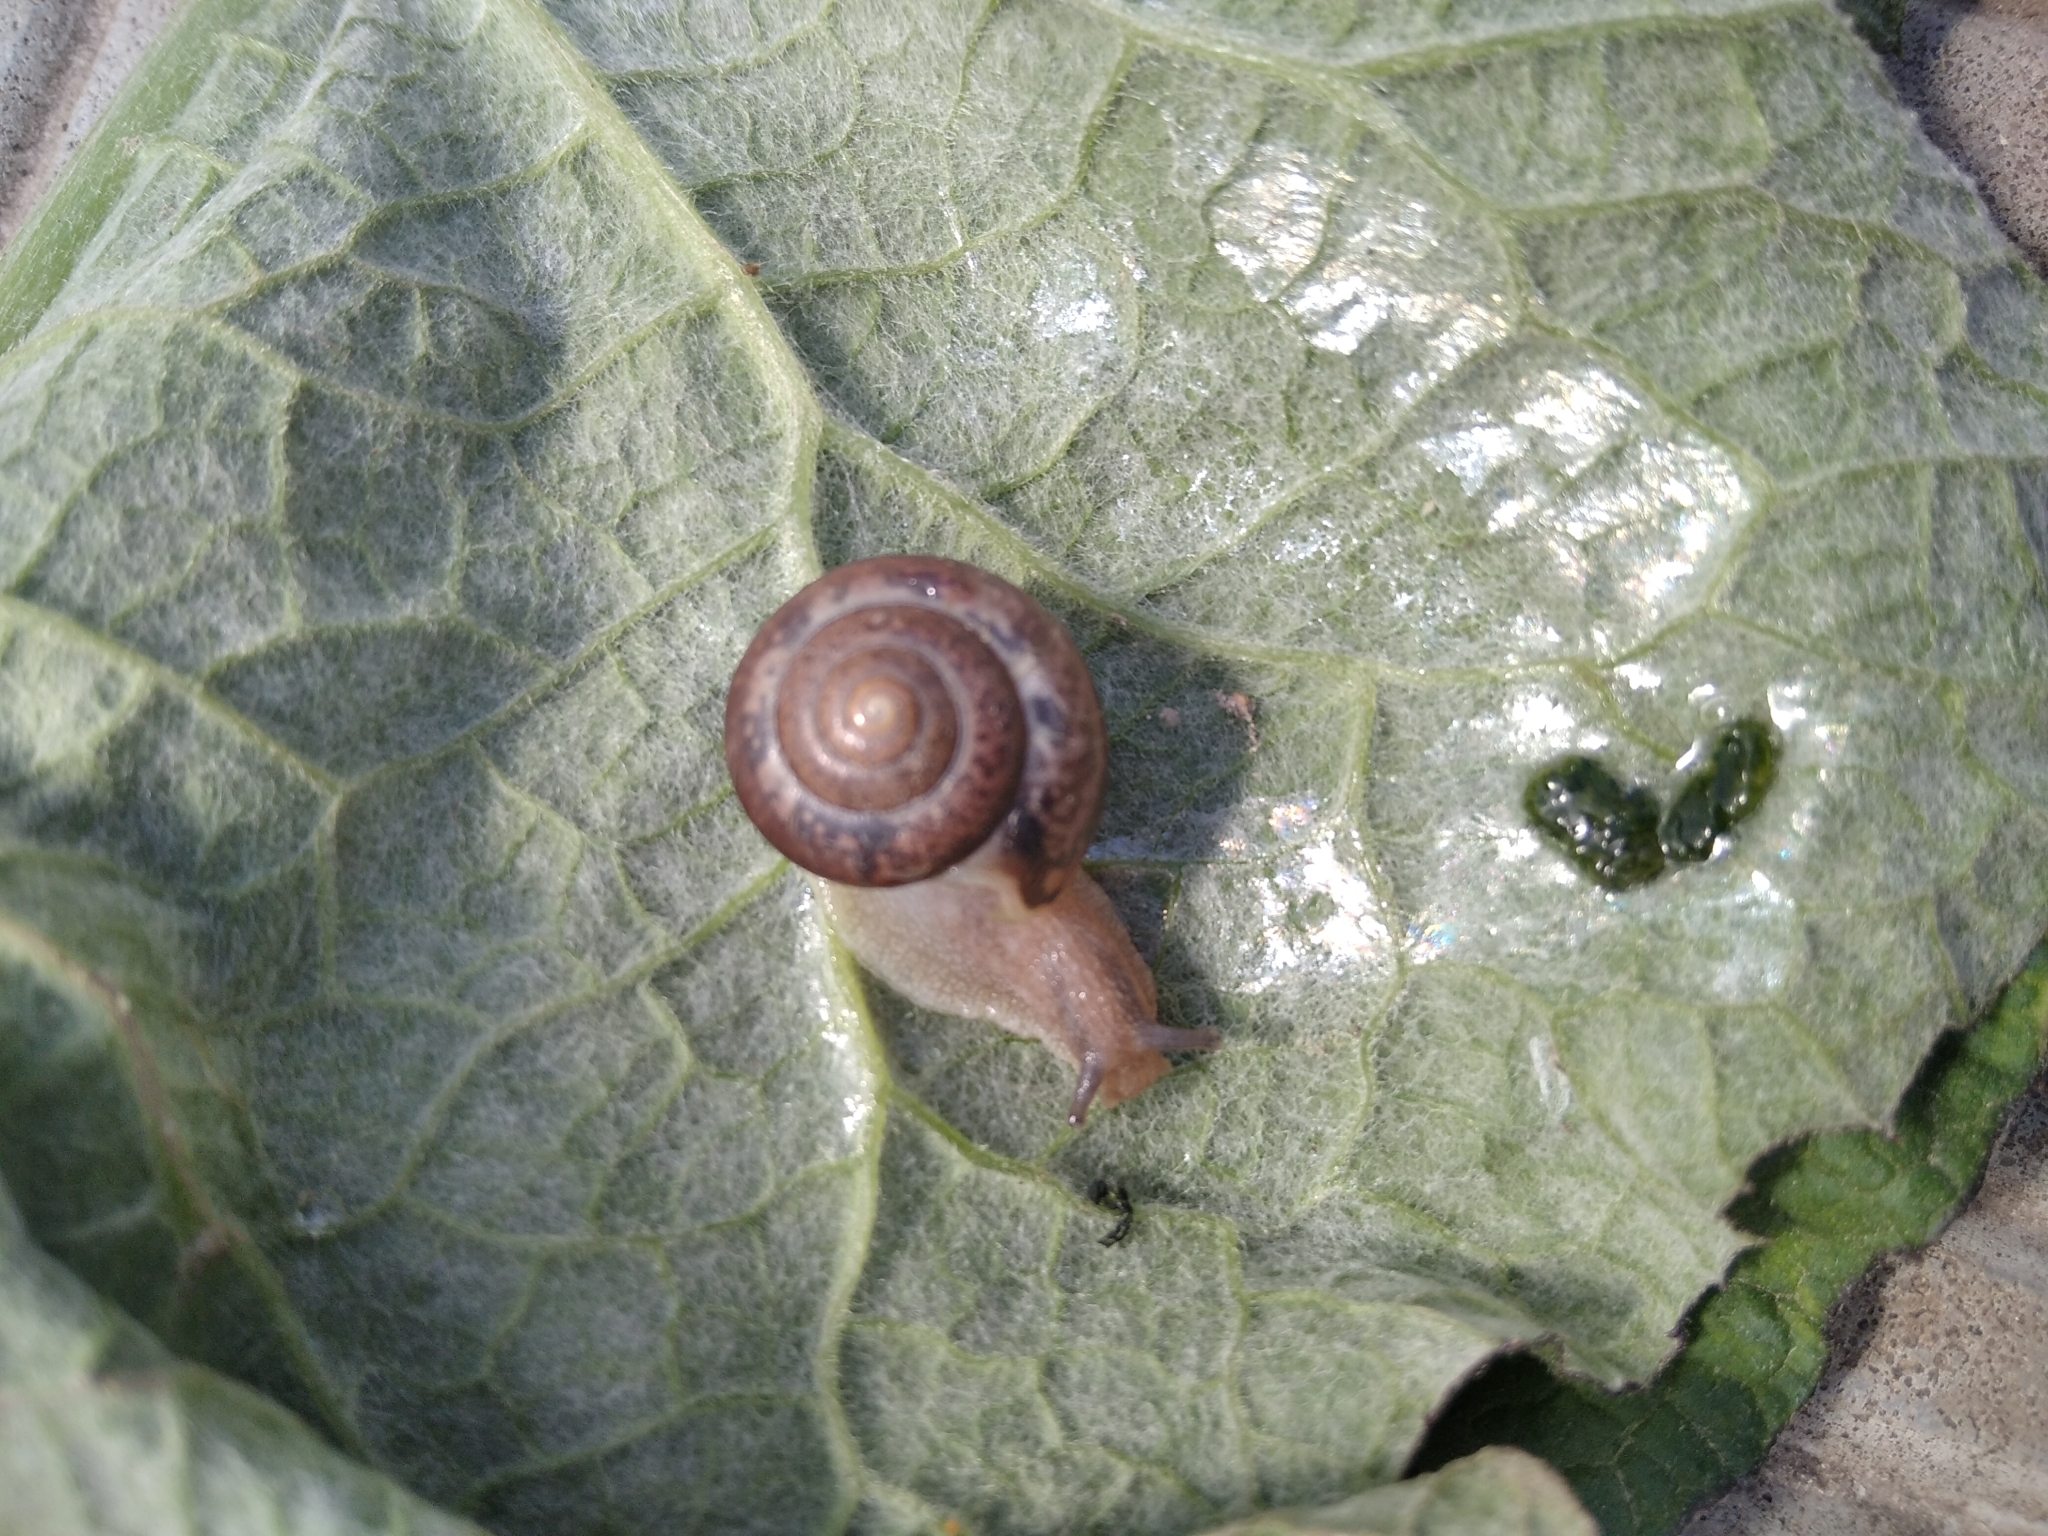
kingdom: Animalia
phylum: Mollusca
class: Gastropoda
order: Stylommatophora
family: Camaenidae
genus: Fruticicola
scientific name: Fruticicola fruticum
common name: Bush snail
